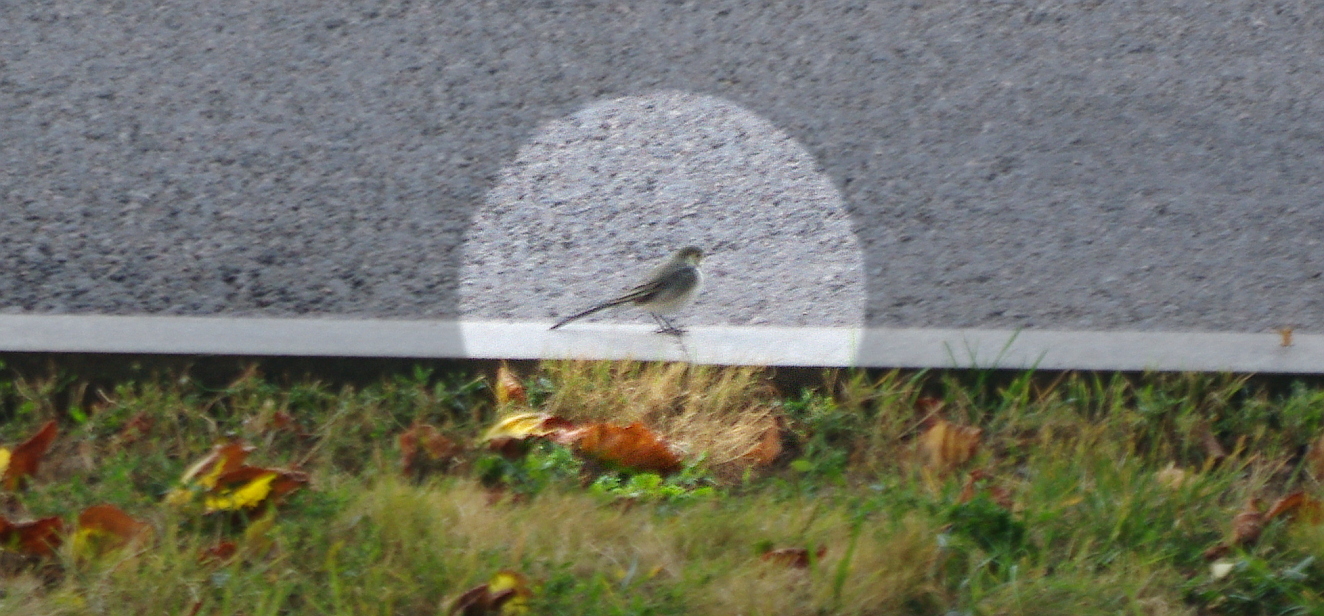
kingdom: Animalia
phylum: Chordata
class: Aves
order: Passeriformes
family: Motacillidae
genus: Motacilla
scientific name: Motacilla alba
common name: White wagtail
